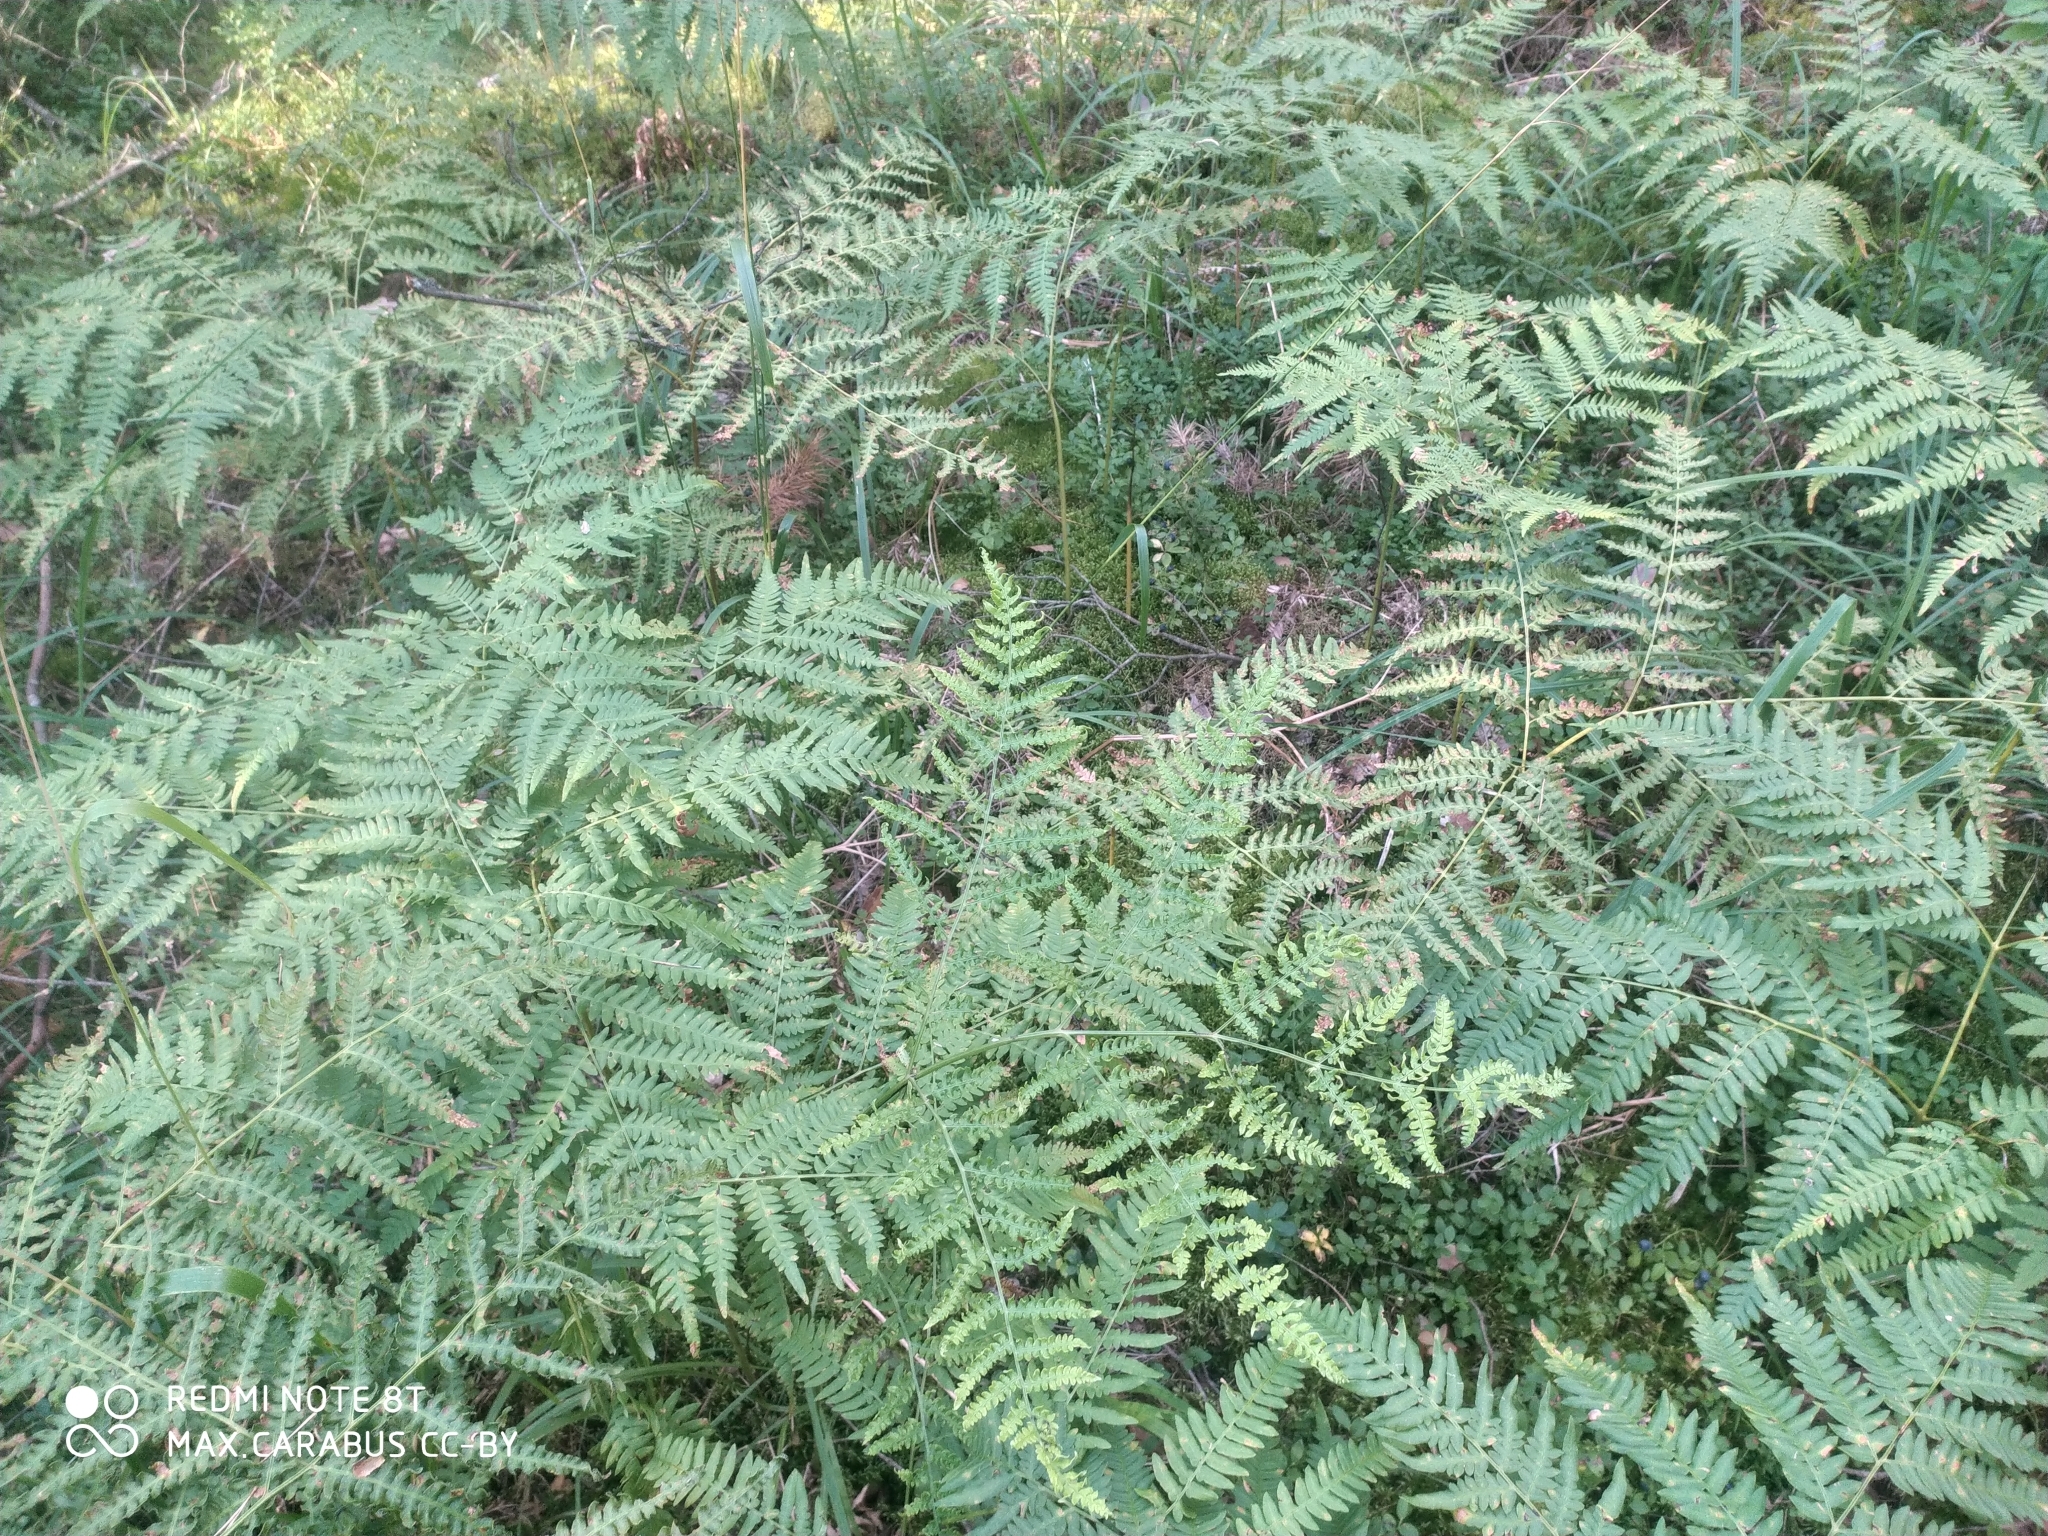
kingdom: Plantae
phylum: Tracheophyta
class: Polypodiopsida
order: Polypodiales
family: Dennstaedtiaceae
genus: Pteridium
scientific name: Pteridium aquilinum
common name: Bracken
